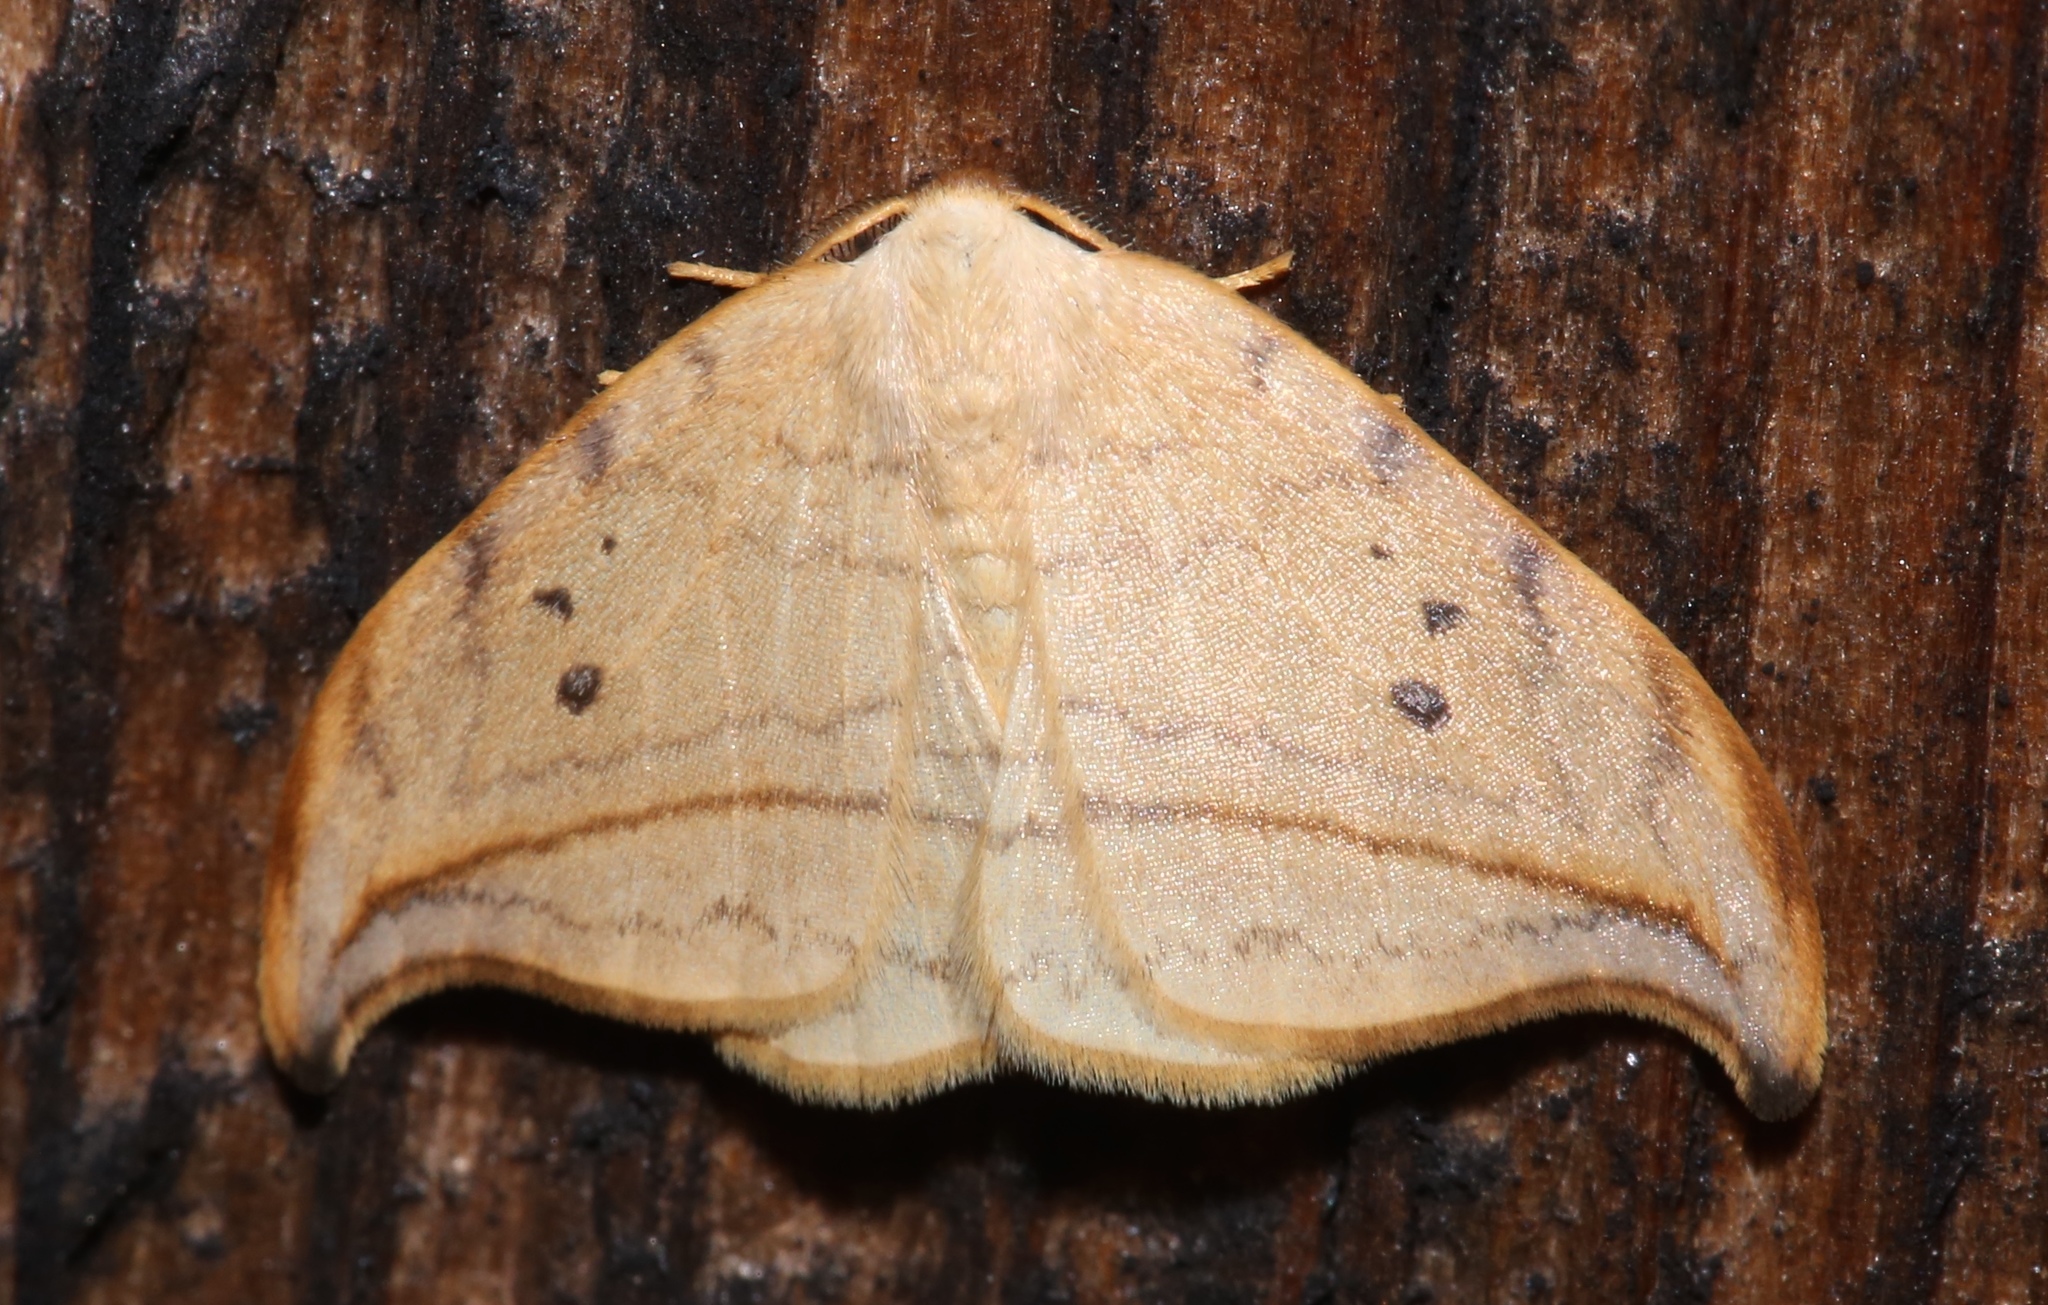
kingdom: Animalia
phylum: Arthropoda
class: Insecta
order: Lepidoptera
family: Drepanidae
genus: Drepana
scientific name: Drepana arcuata
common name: Arched hooktip moth
